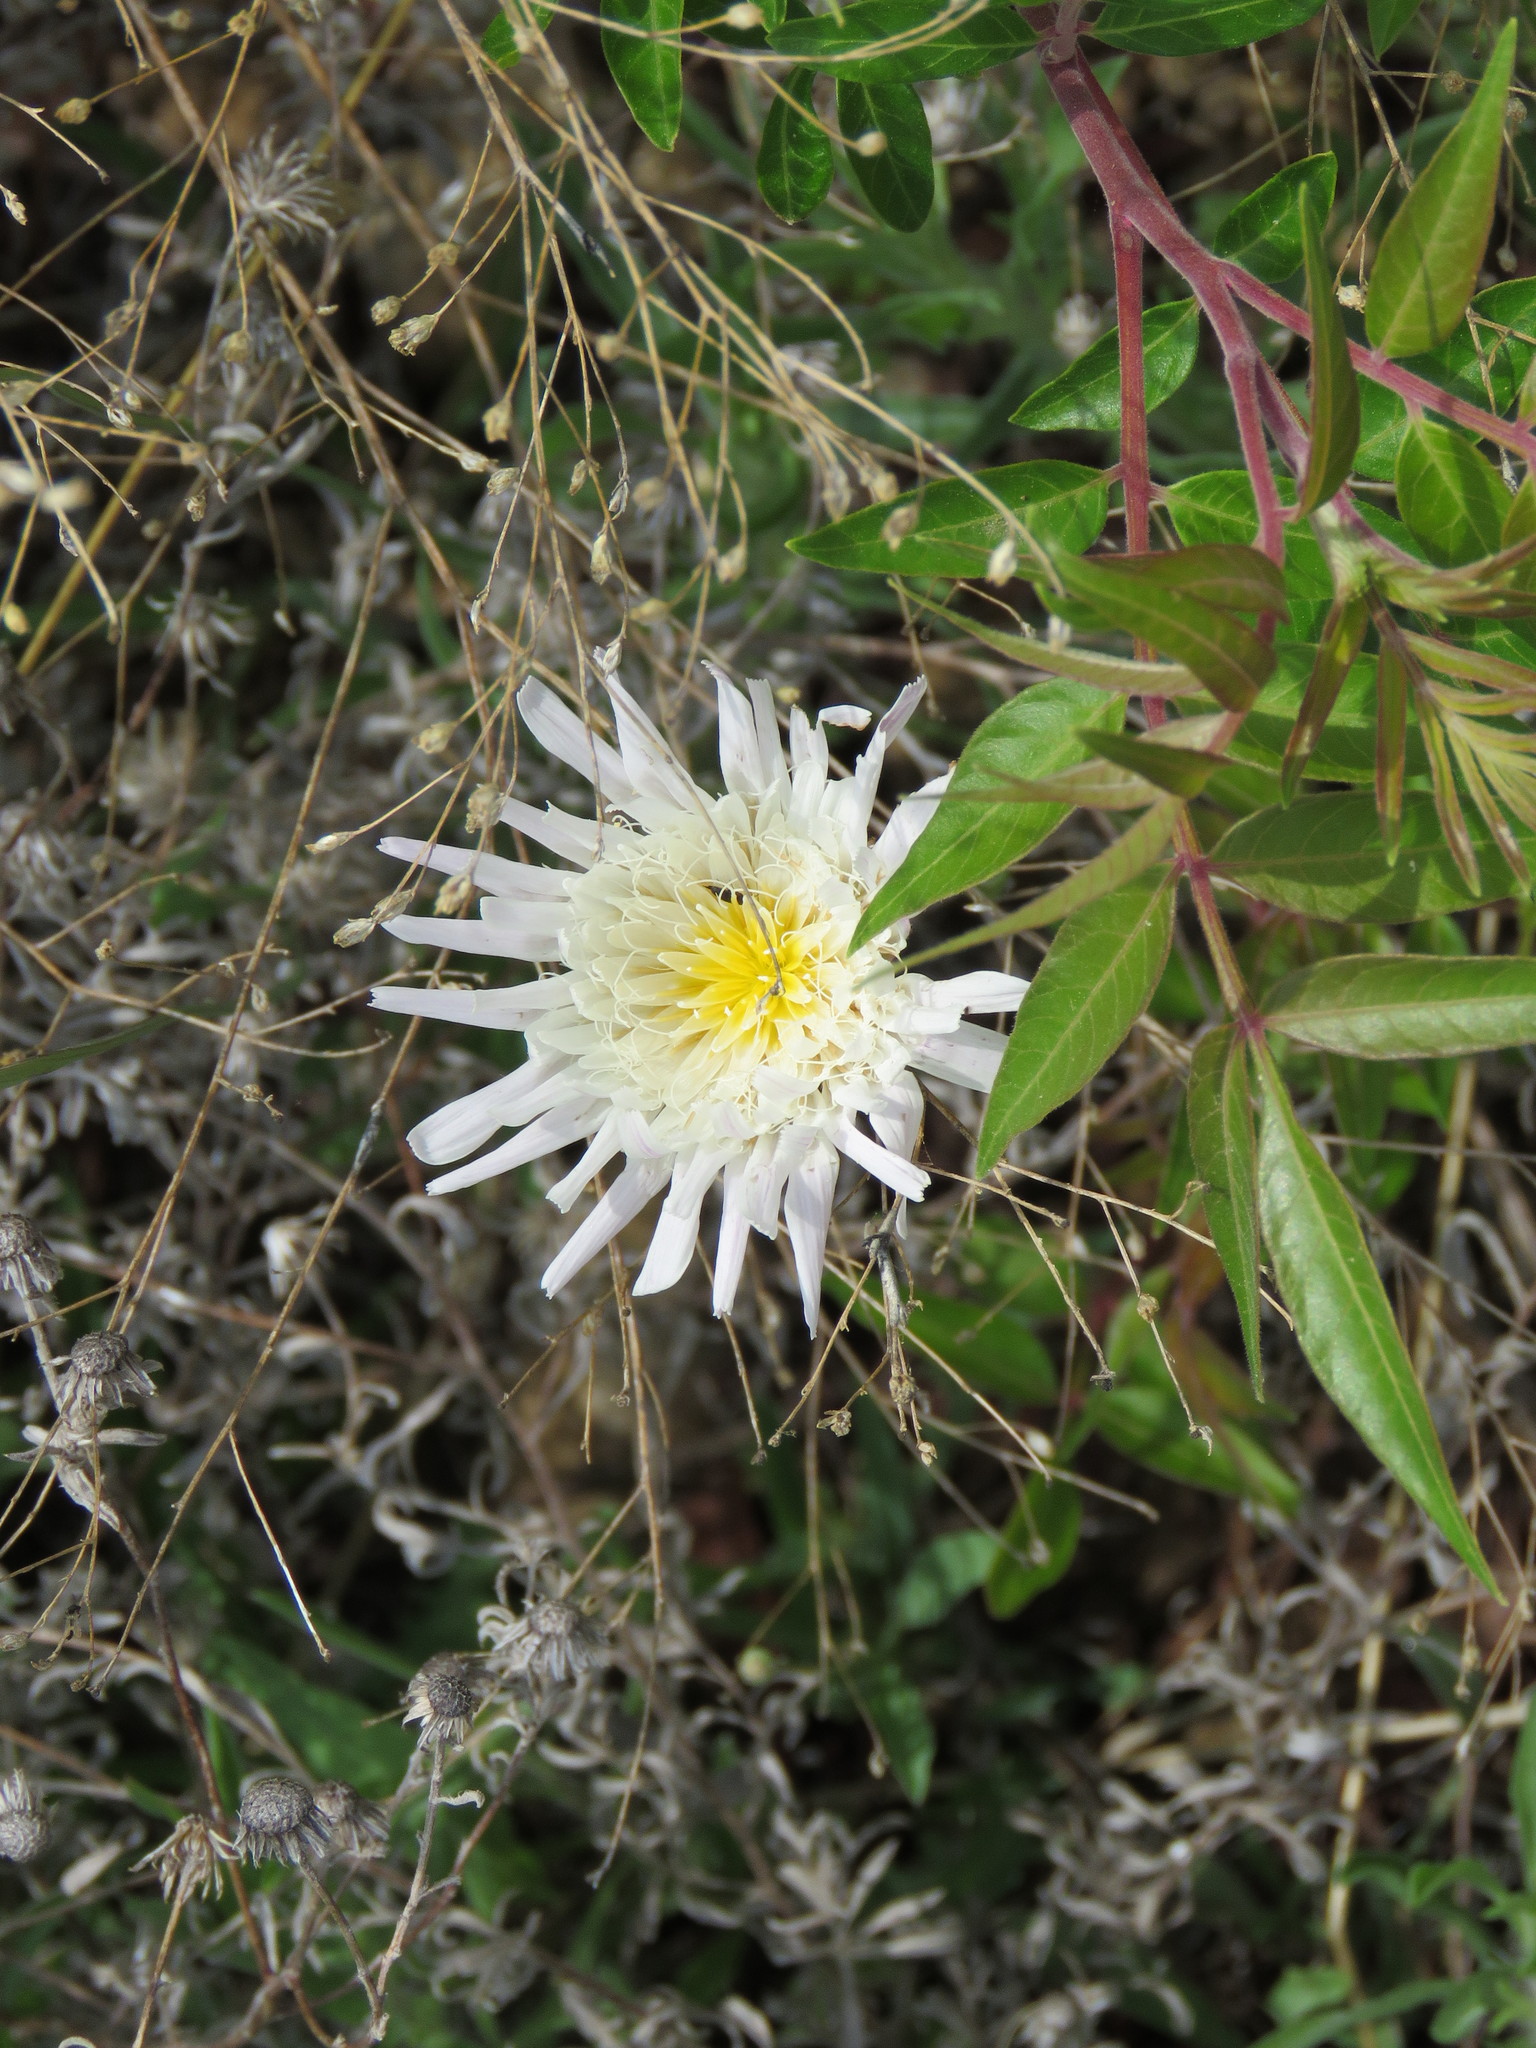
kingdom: Plantae
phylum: Tracheophyta
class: Magnoliopsida
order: Asterales
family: Asteraceae
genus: Pinaropappus
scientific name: Pinaropappus roseus
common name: Rock-lettuce
